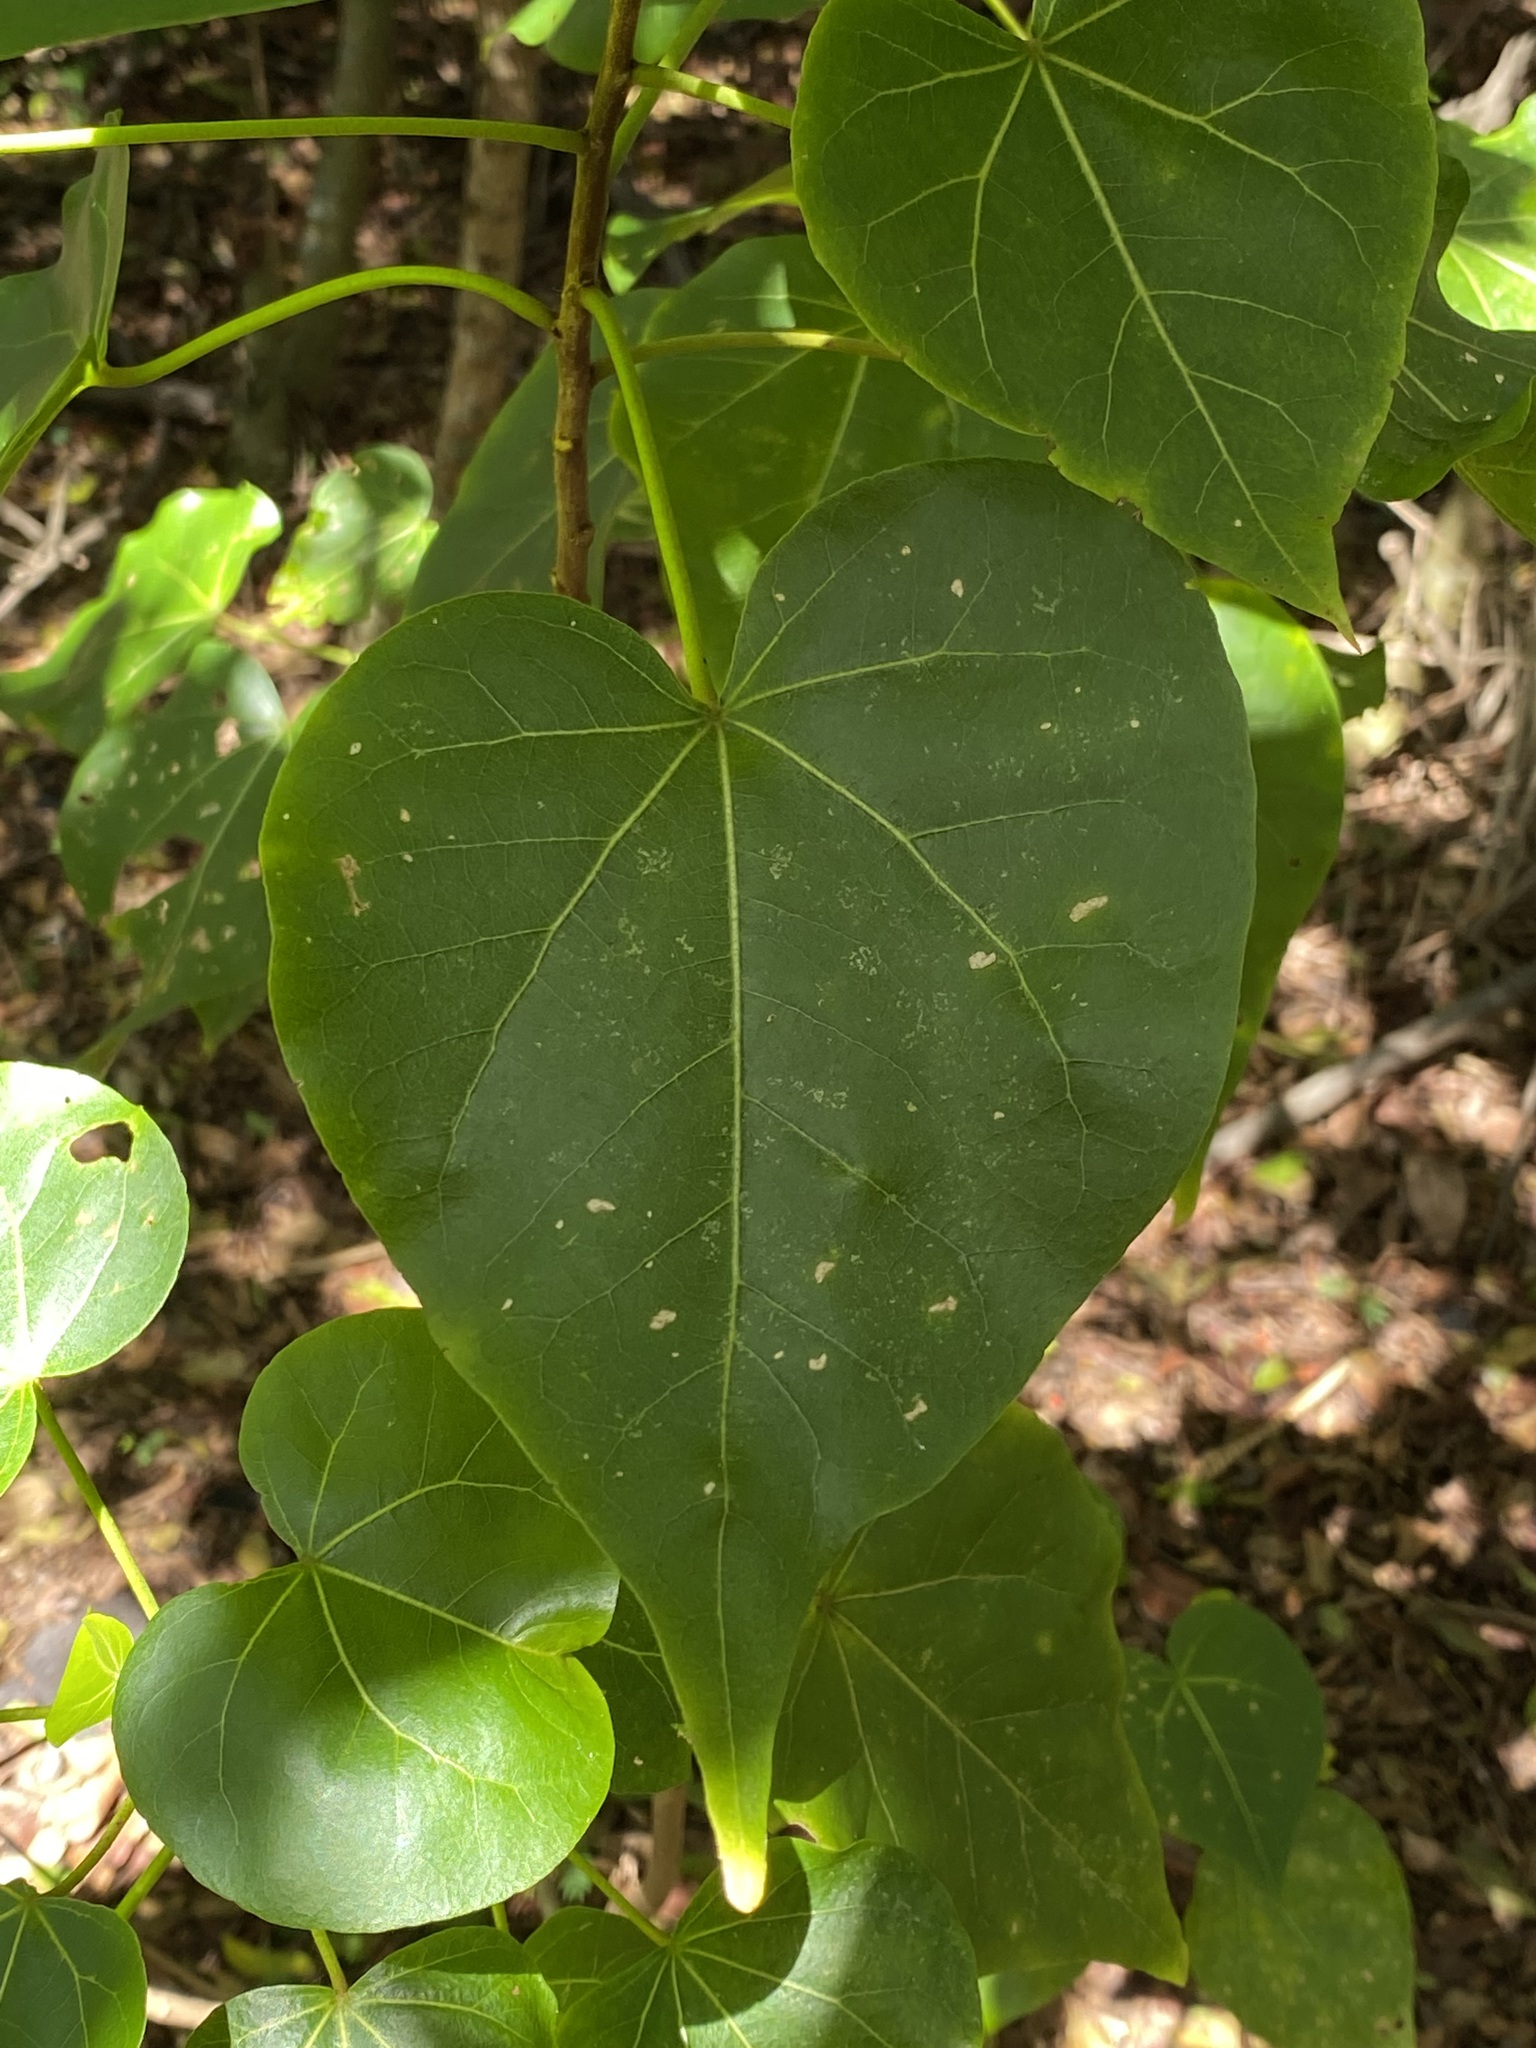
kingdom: Plantae
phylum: Tracheophyta
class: Magnoliopsida
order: Malvales
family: Malvaceae
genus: Thespesia
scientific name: Thespesia populnea
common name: Seaside mahoe
